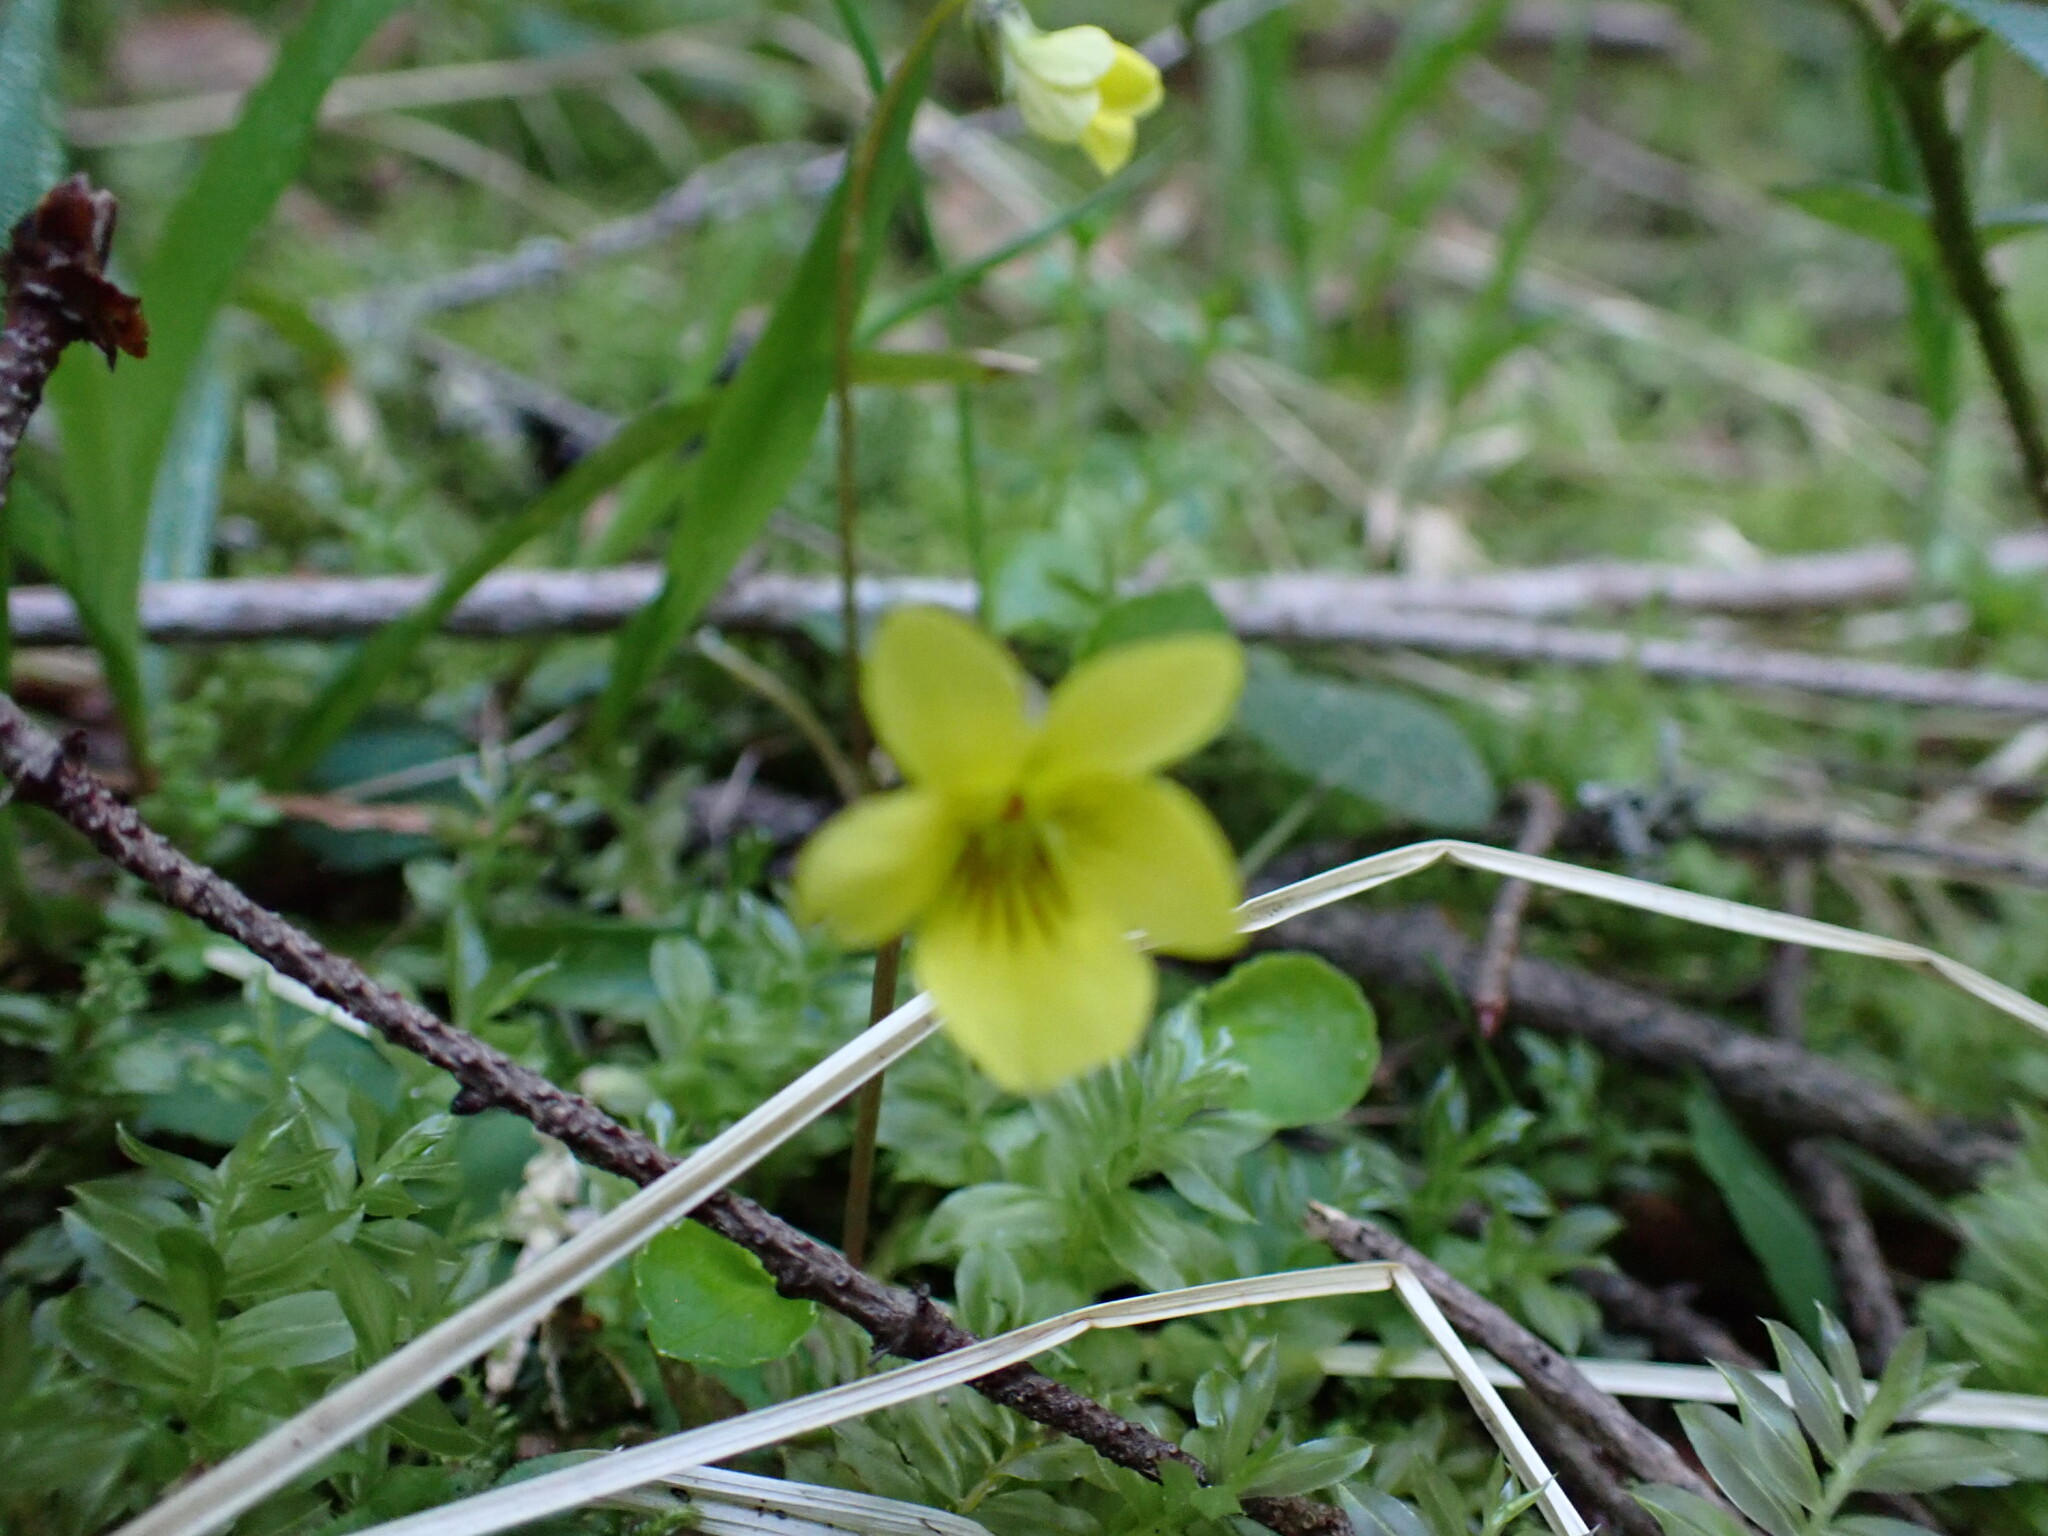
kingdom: Plantae
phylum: Tracheophyta
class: Magnoliopsida
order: Malpighiales
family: Violaceae
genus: Viola
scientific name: Viola sempervirens
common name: Evergreen violet
